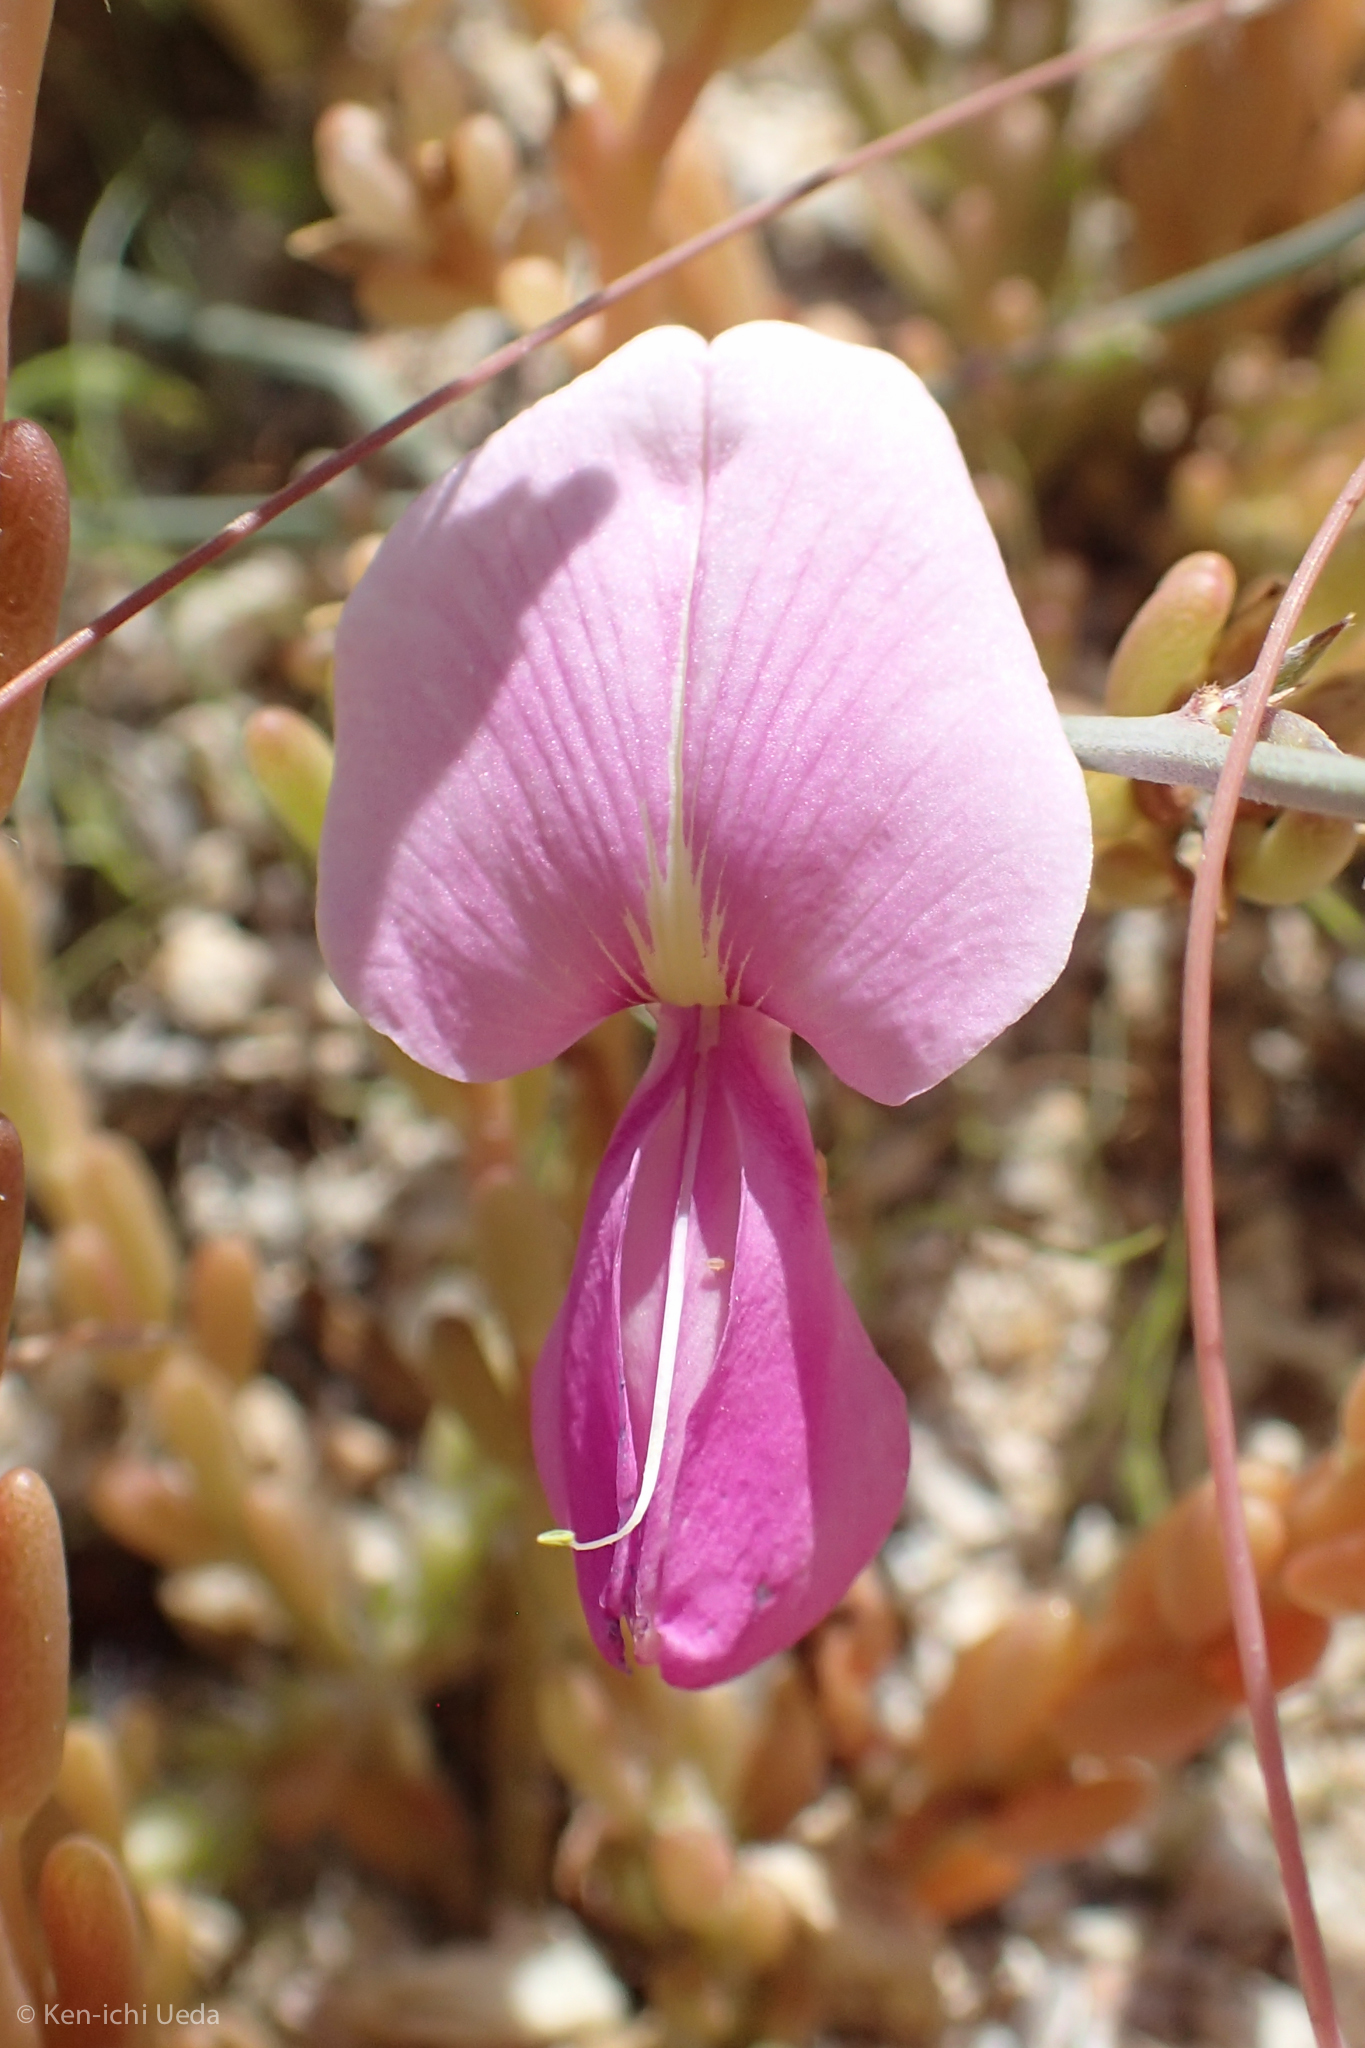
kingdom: Plantae
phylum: Tracheophyta
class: Magnoliopsida
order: Fabales
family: Fabaceae
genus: Tephrosia
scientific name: Tephrosia palmeri
